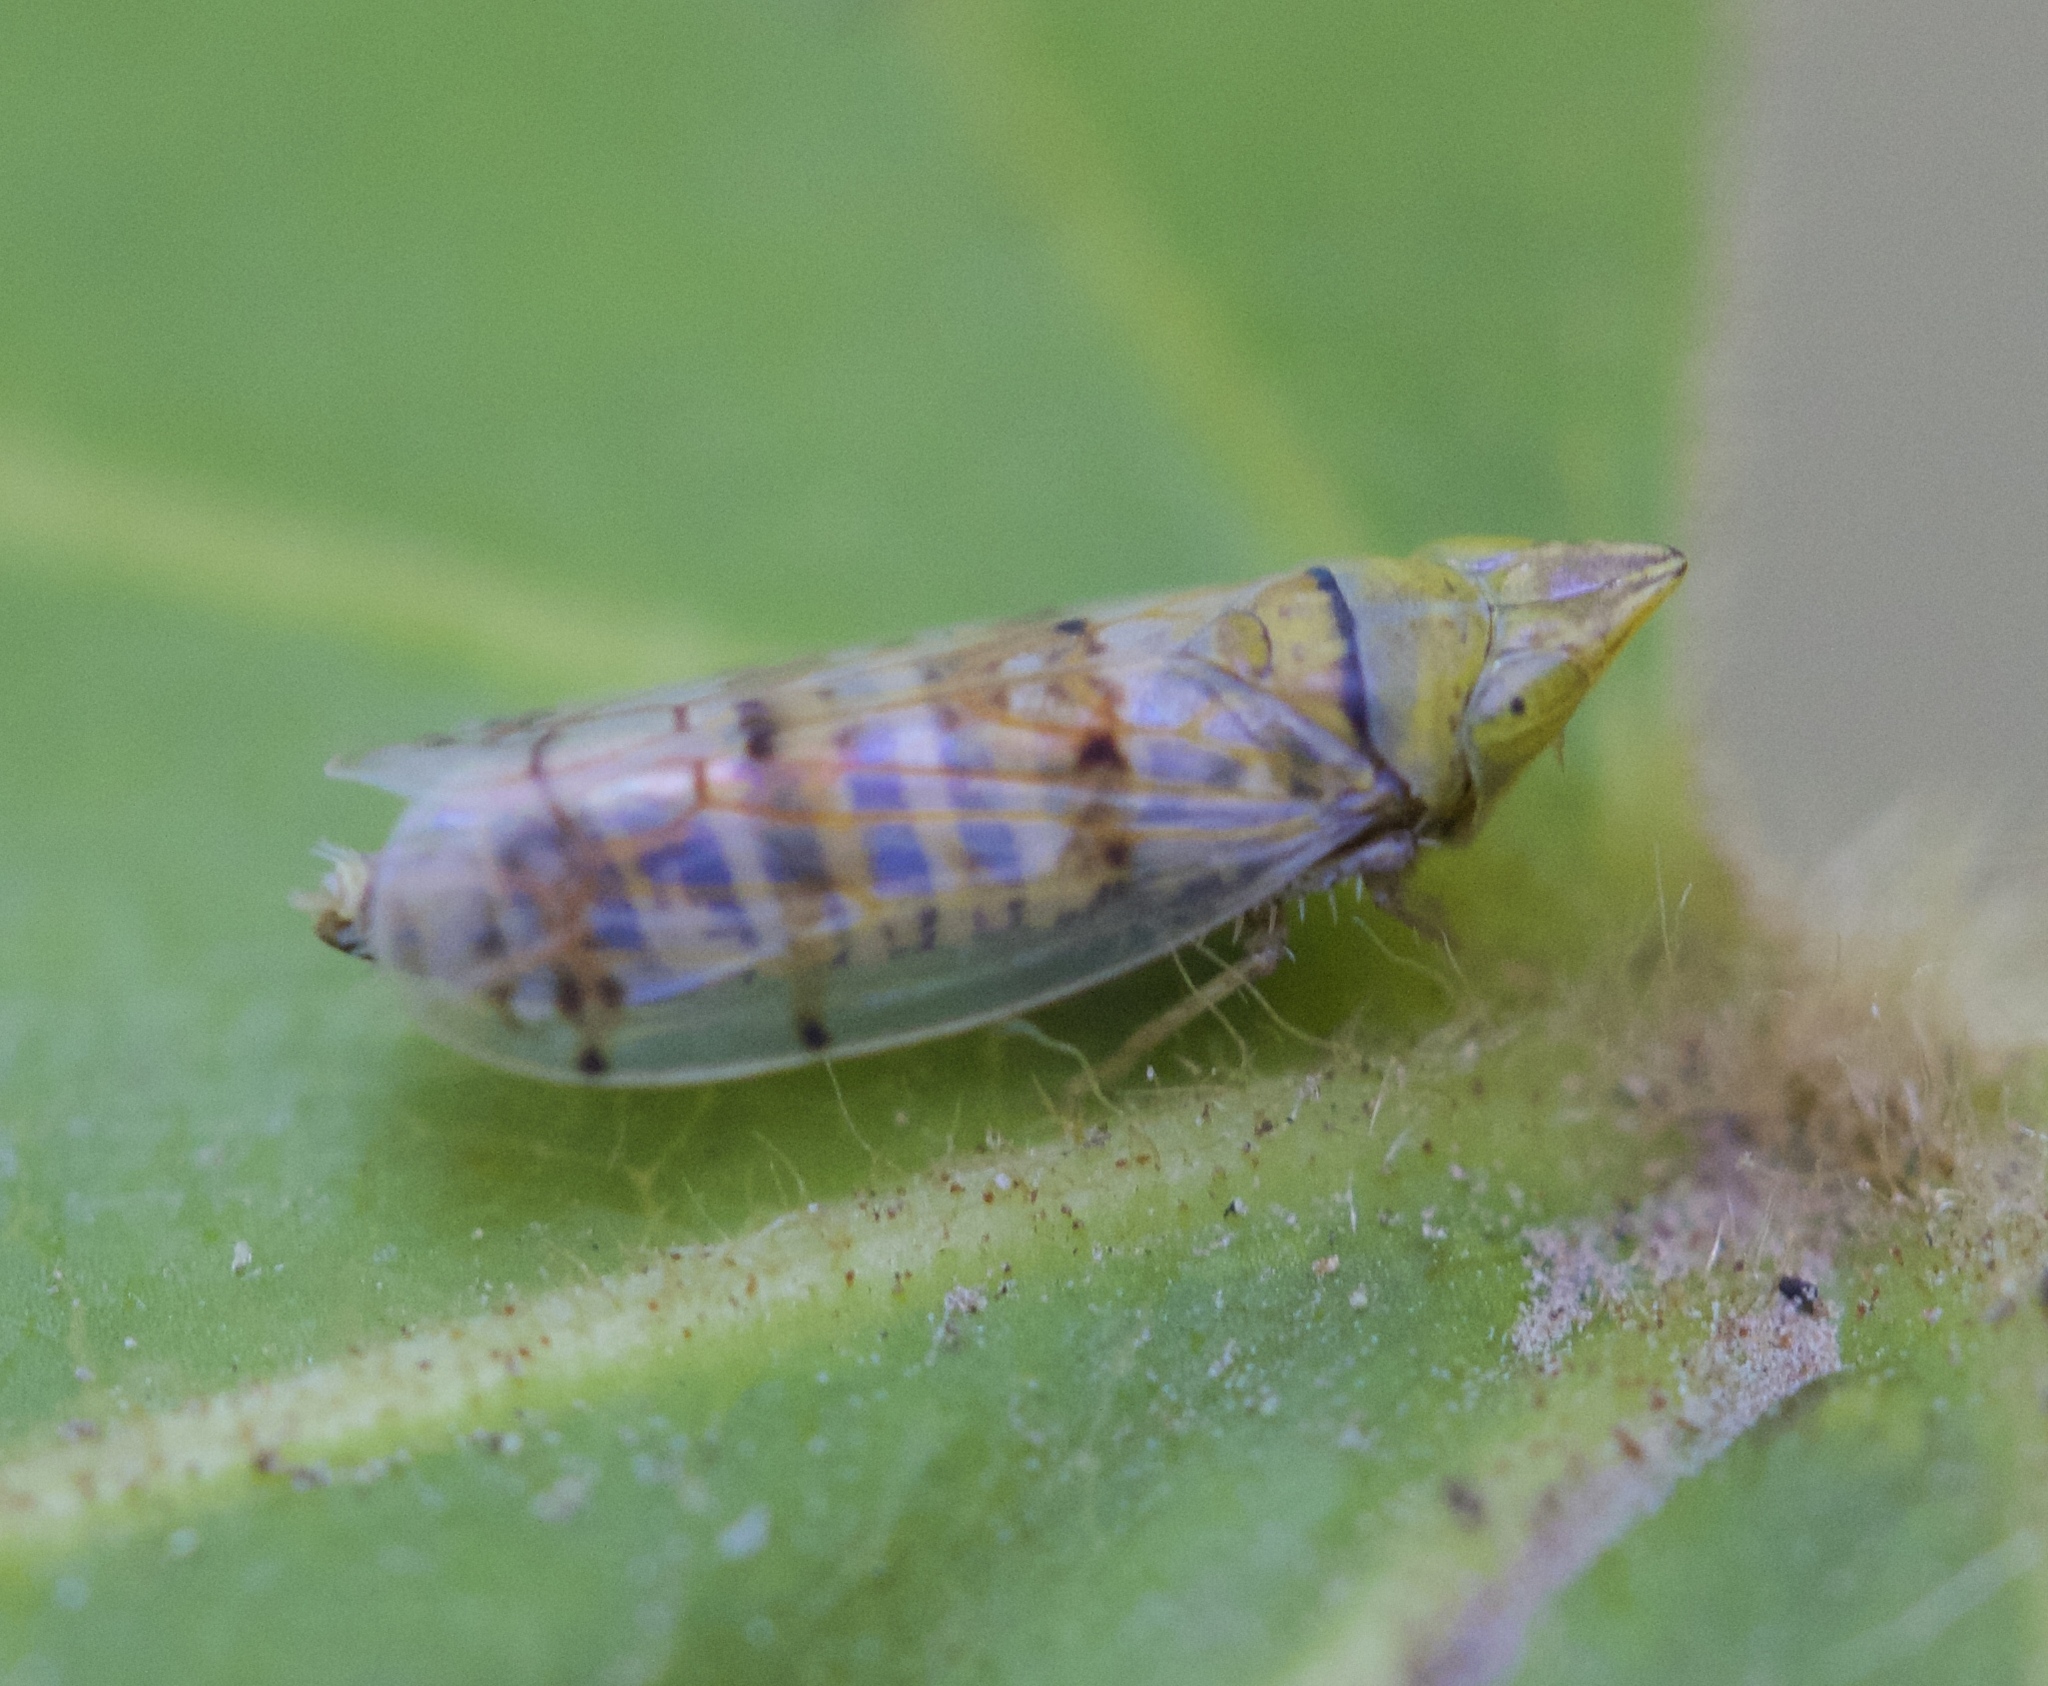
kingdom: Animalia
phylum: Arthropoda
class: Insecta
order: Hemiptera
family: Cicadellidae
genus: Japananus
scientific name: Japananus hyalinus
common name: The japanese maple leafhopper
